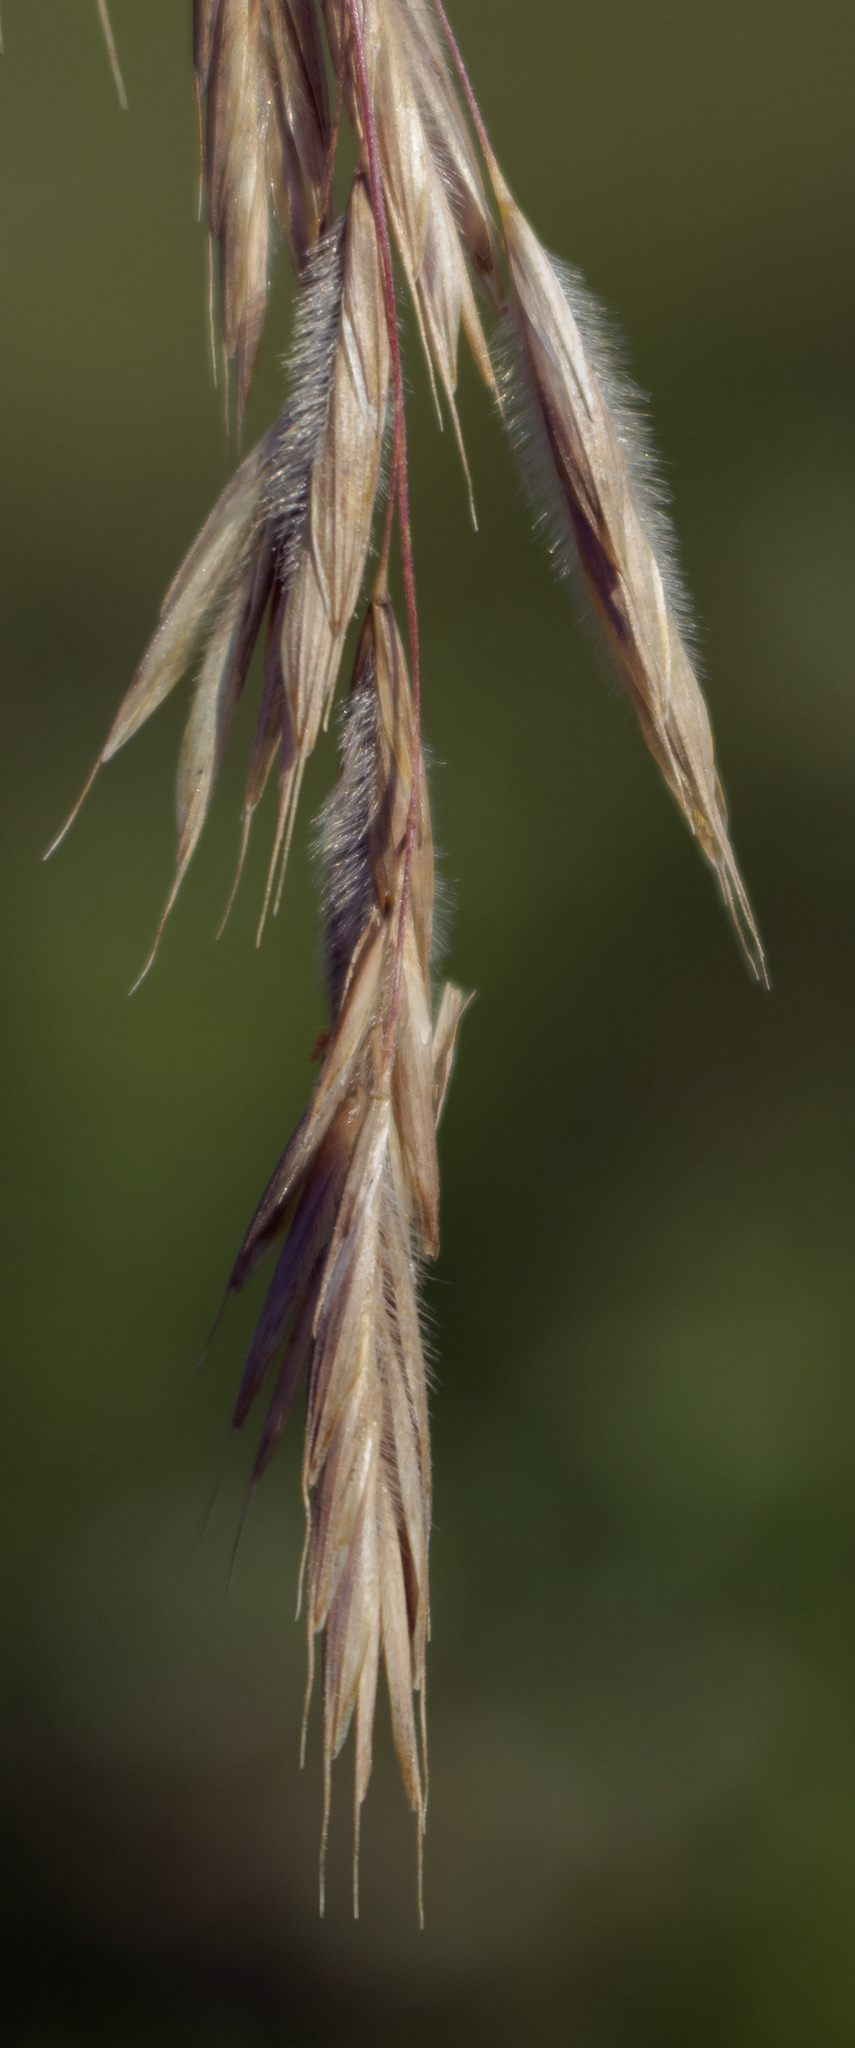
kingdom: Plantae
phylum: Tracheophyta
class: Liliopsida
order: Poales
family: Poaceae
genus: Bromus
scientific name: Bromus ciliatus
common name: Fringe brome
